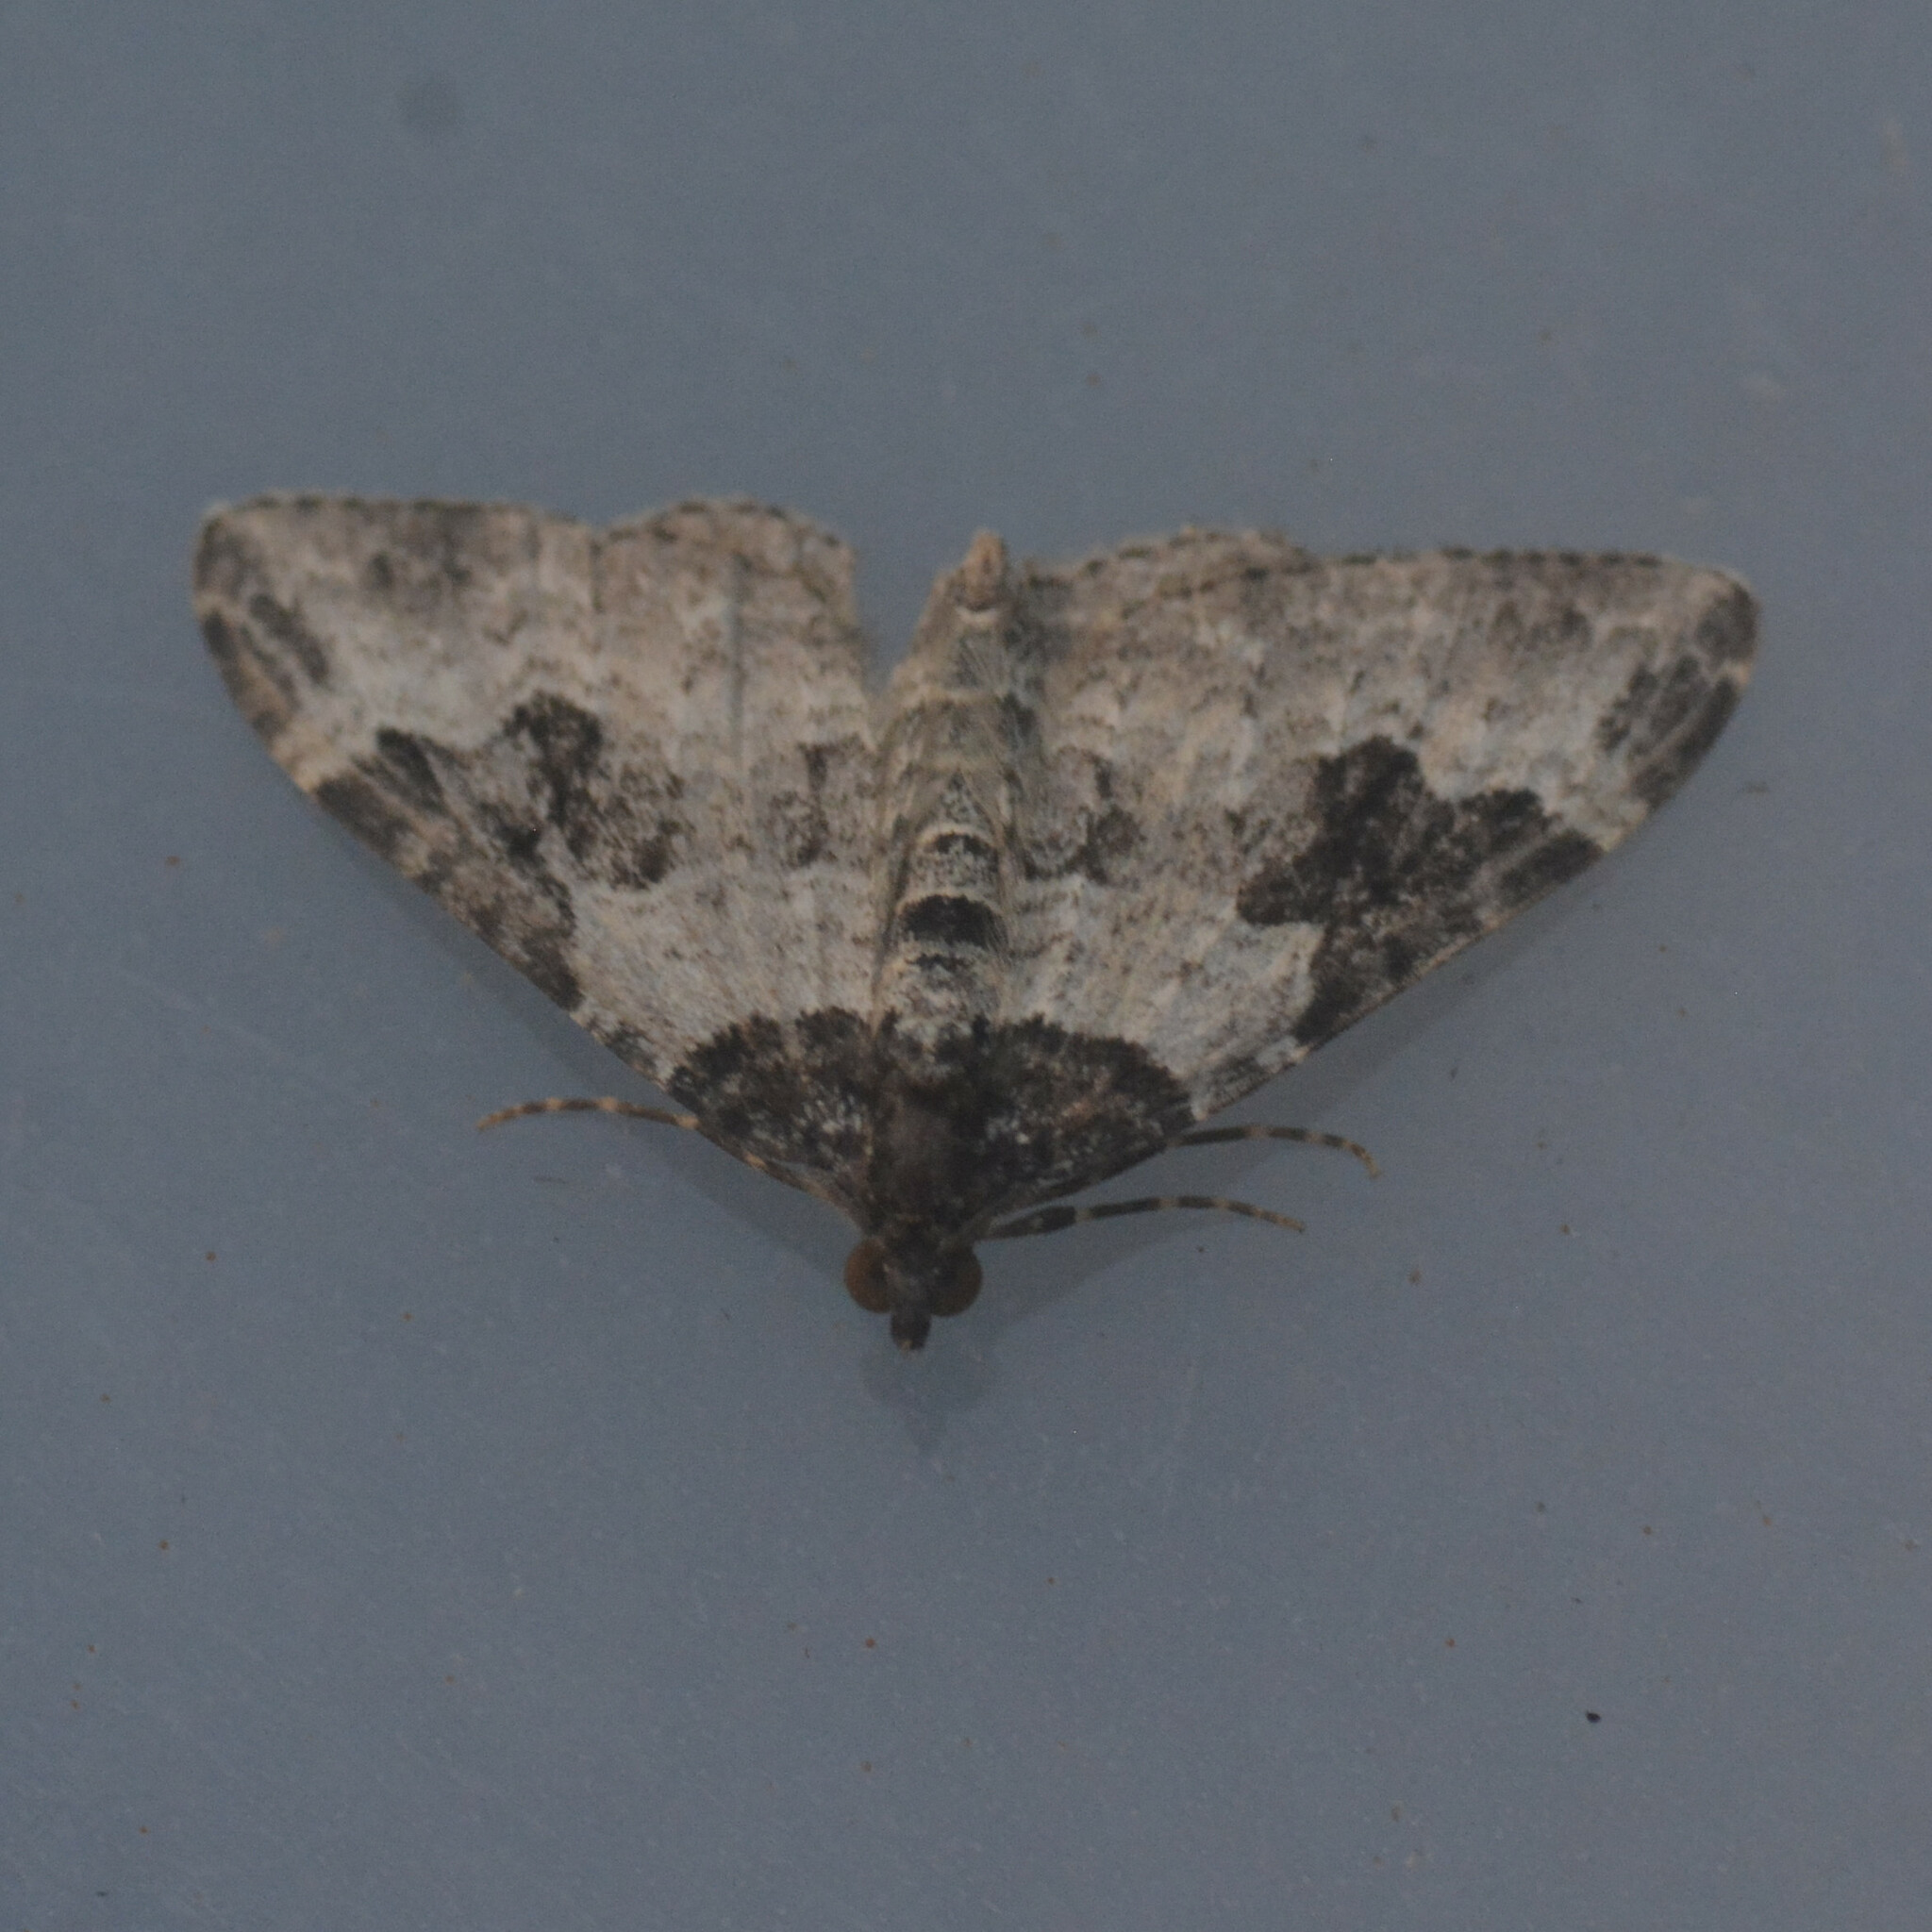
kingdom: Animalia
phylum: Arthropoda
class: Insecta
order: Lepidoptera
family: Geometridae
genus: Xanthorhoe
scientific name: Xanthorhoe fluctuata
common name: Garden carpet
